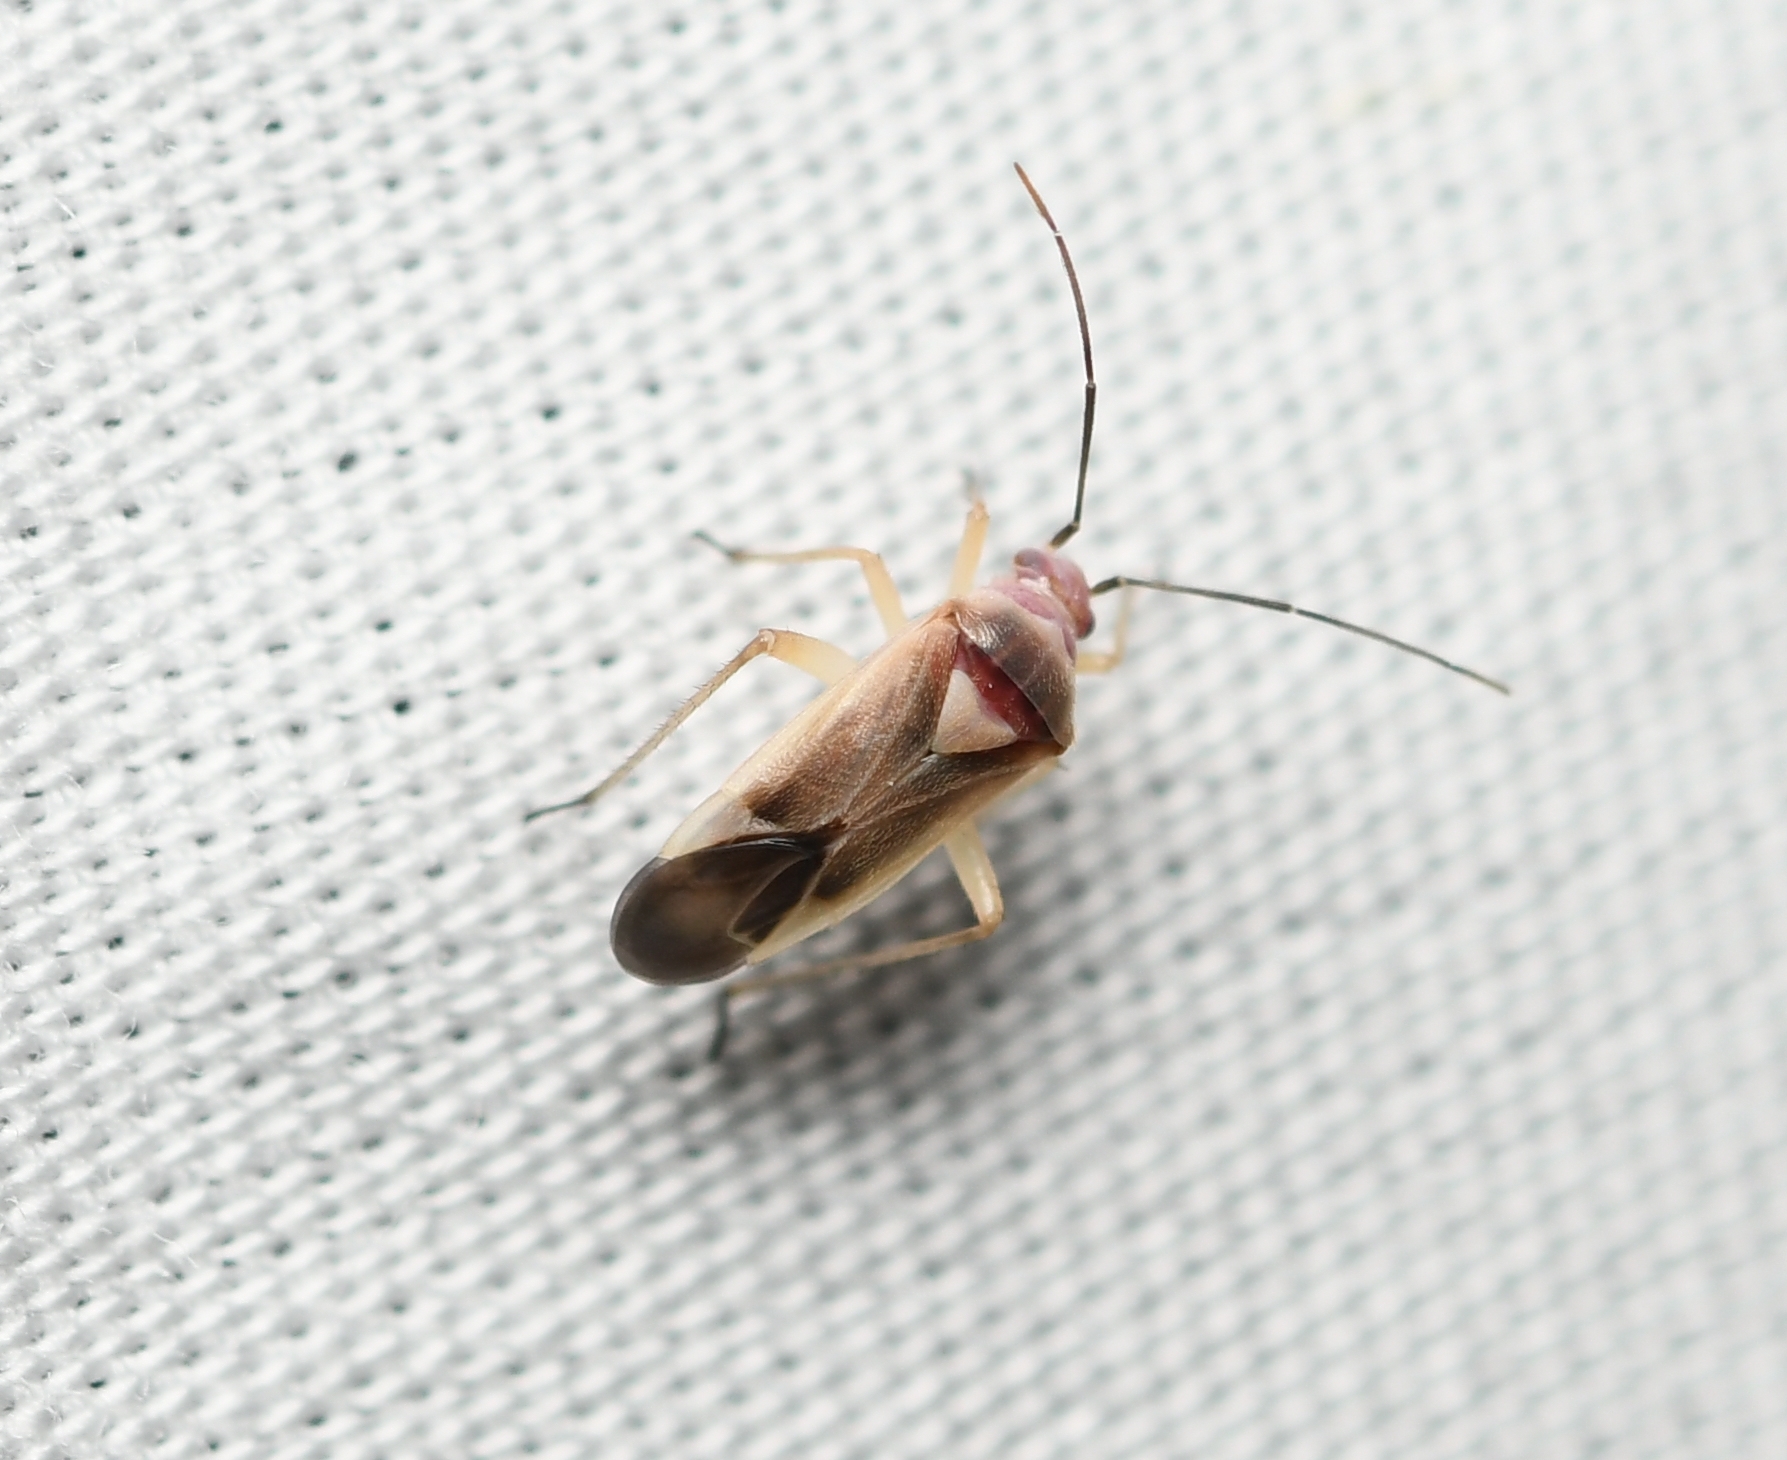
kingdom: Animalia
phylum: Arthropoda
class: Insecta
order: Hemiptera
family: Miridae
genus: Nicholia
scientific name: Nicholia eriogoni
